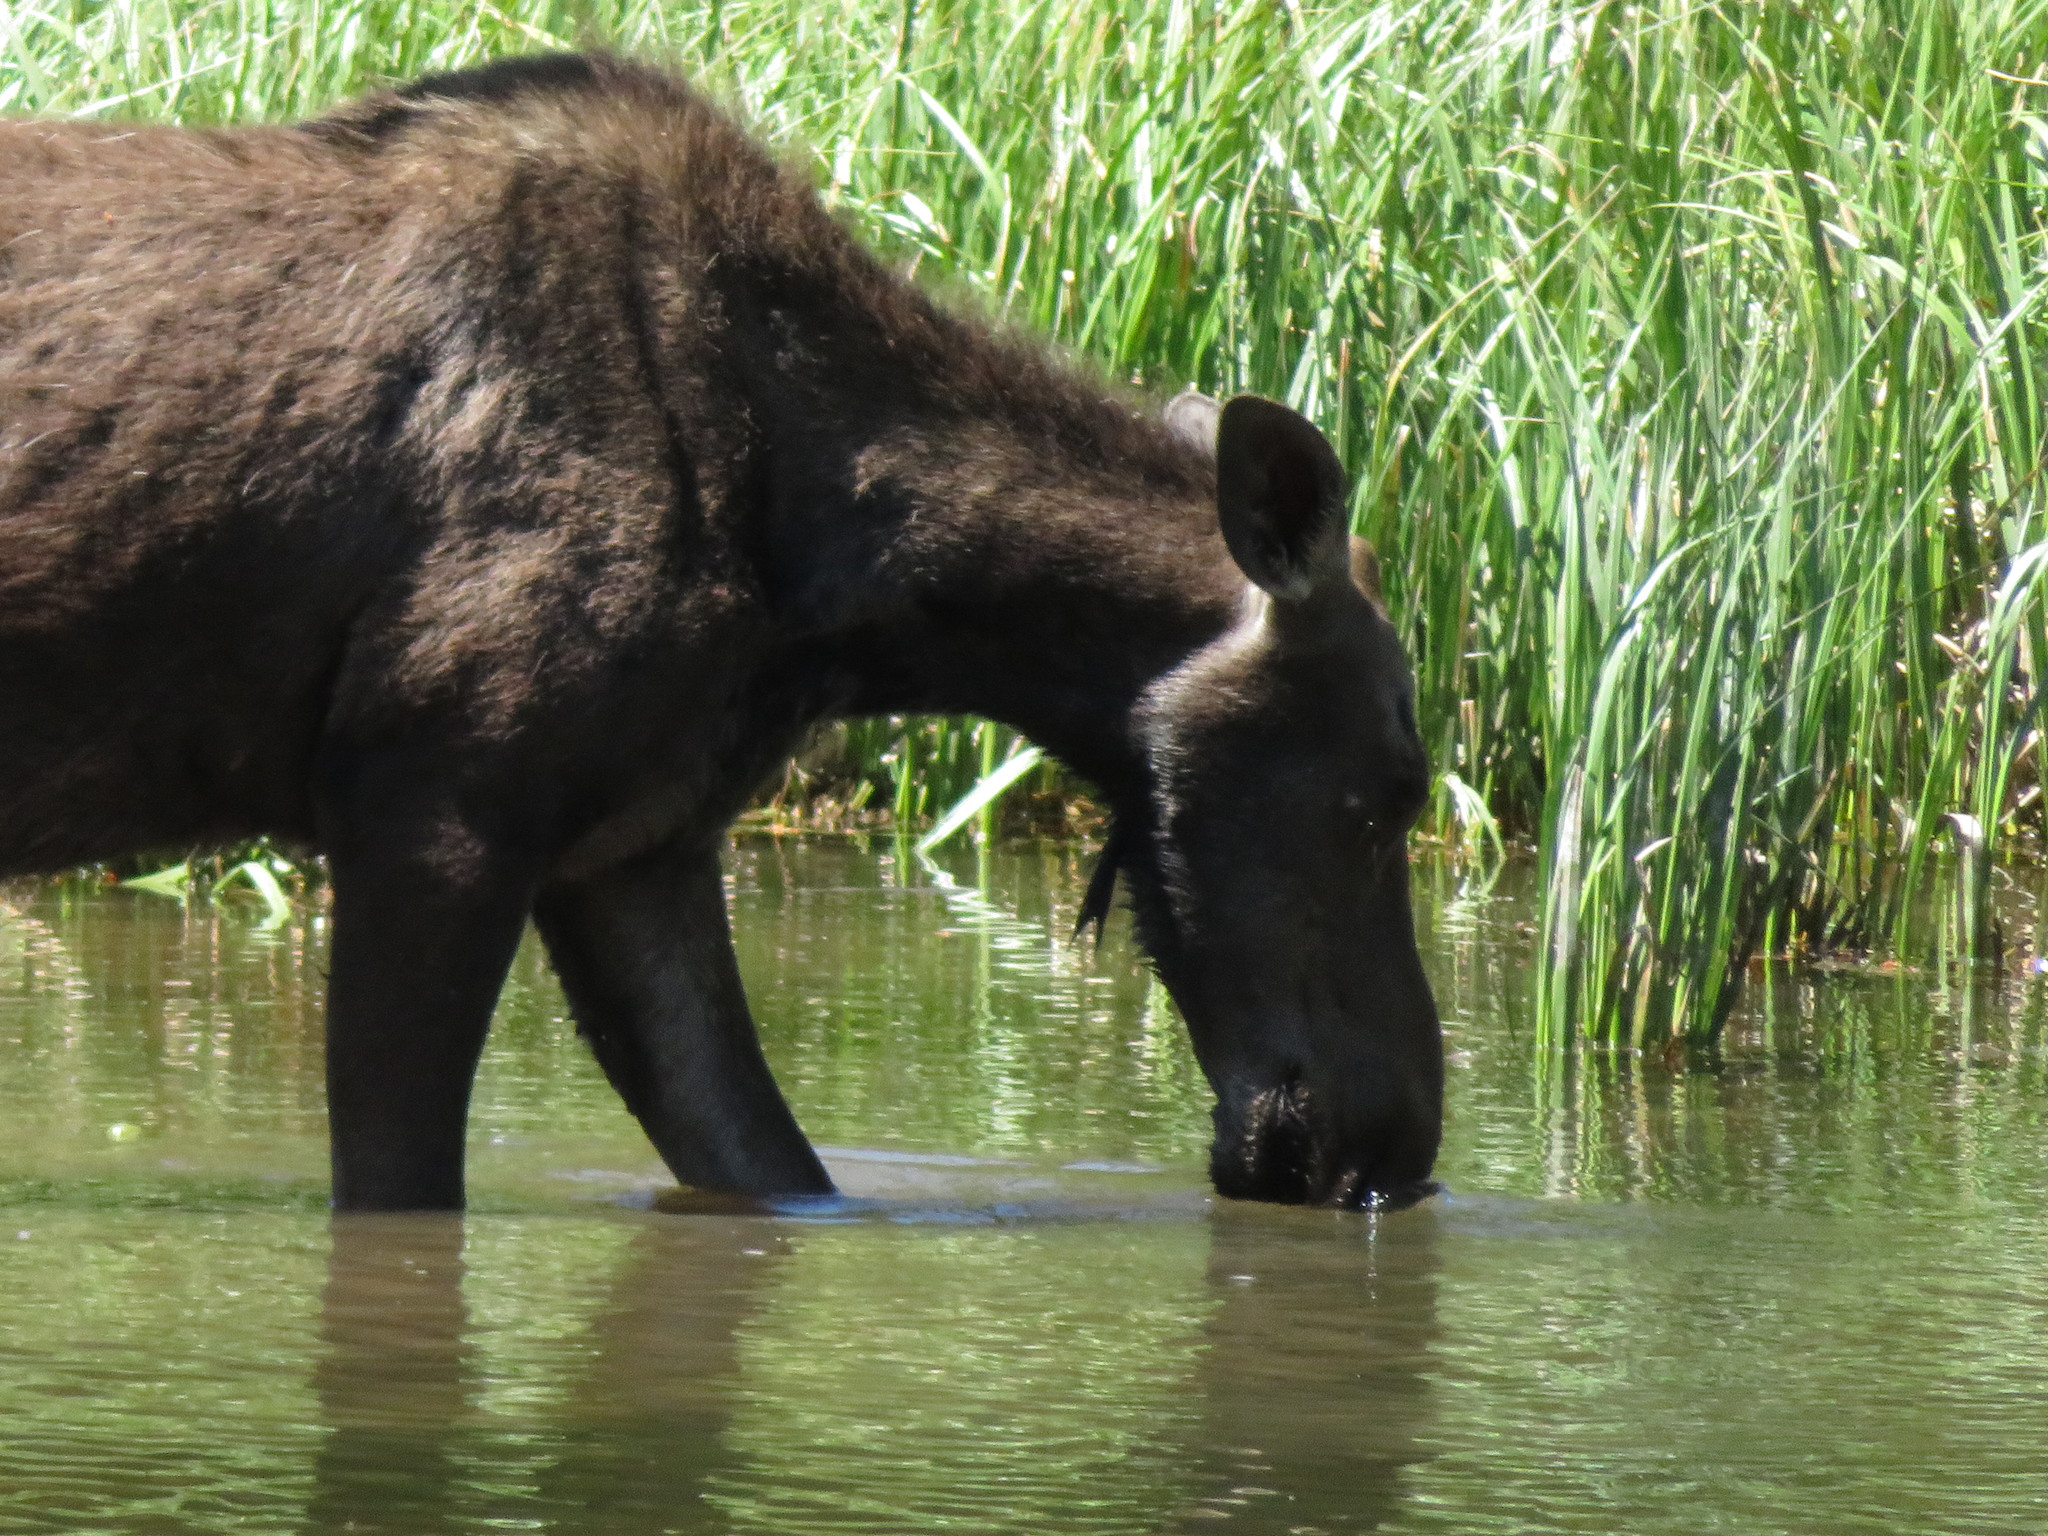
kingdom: Animalia
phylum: Chordata
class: Mammalia
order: Artiodactyla
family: Cervidae
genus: Alces
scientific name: Alces alces
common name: Moose
